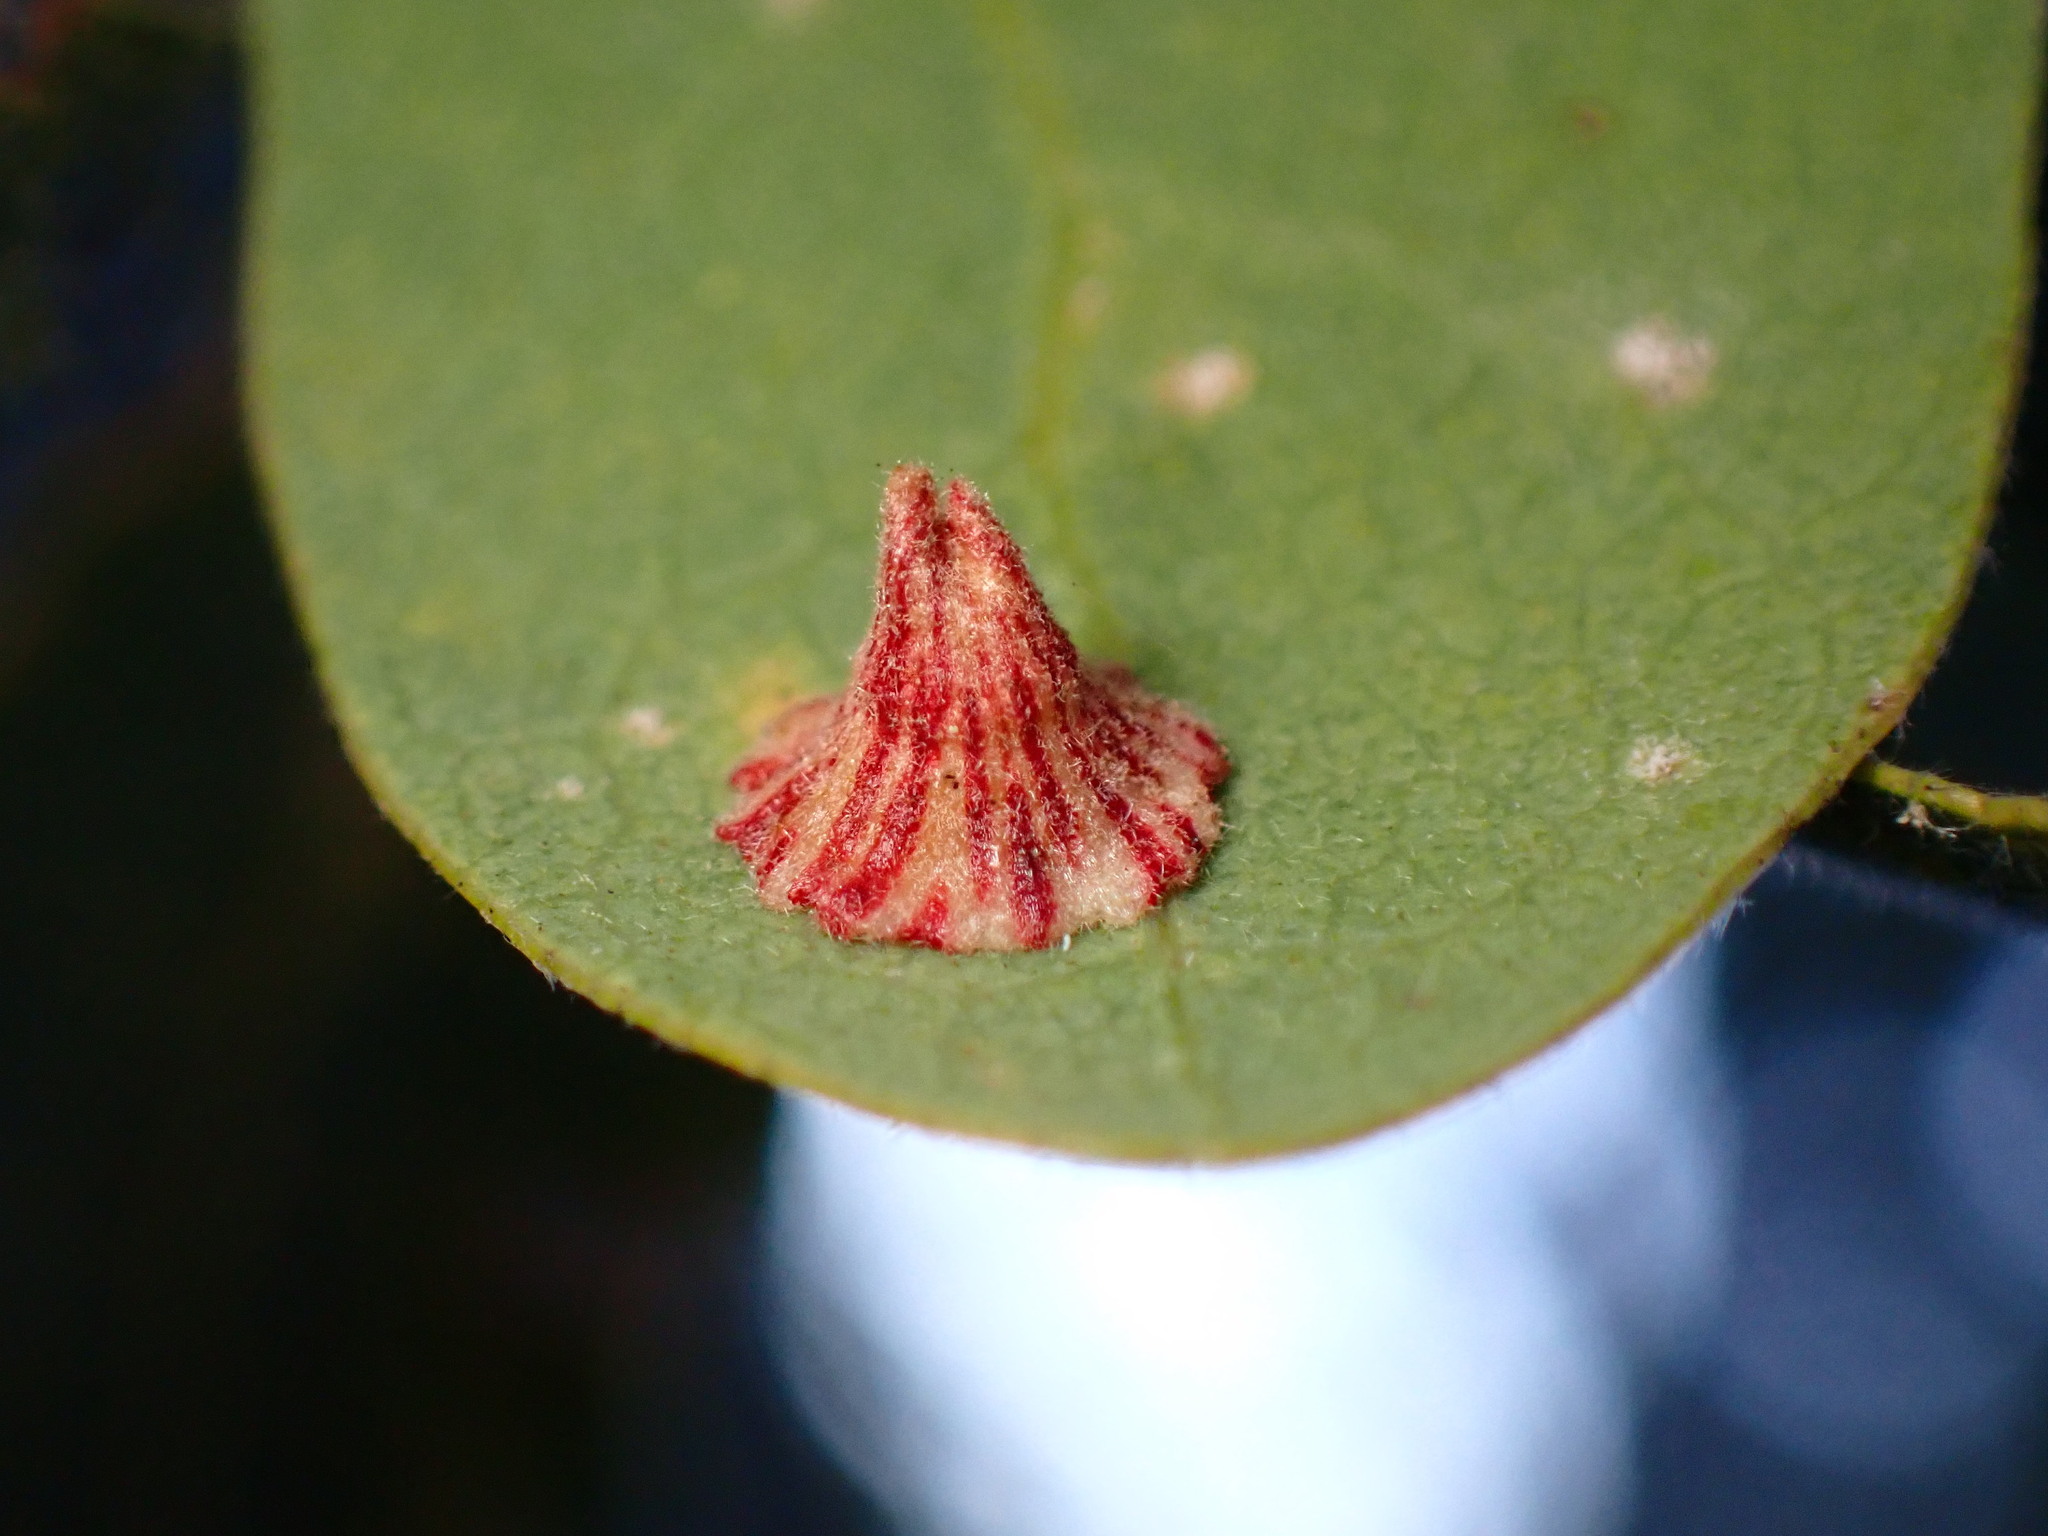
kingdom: Animalia
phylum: Arthropoda
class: Insecta
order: Hymenoptera
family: Cynipidae
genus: Andricus
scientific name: Andricus
